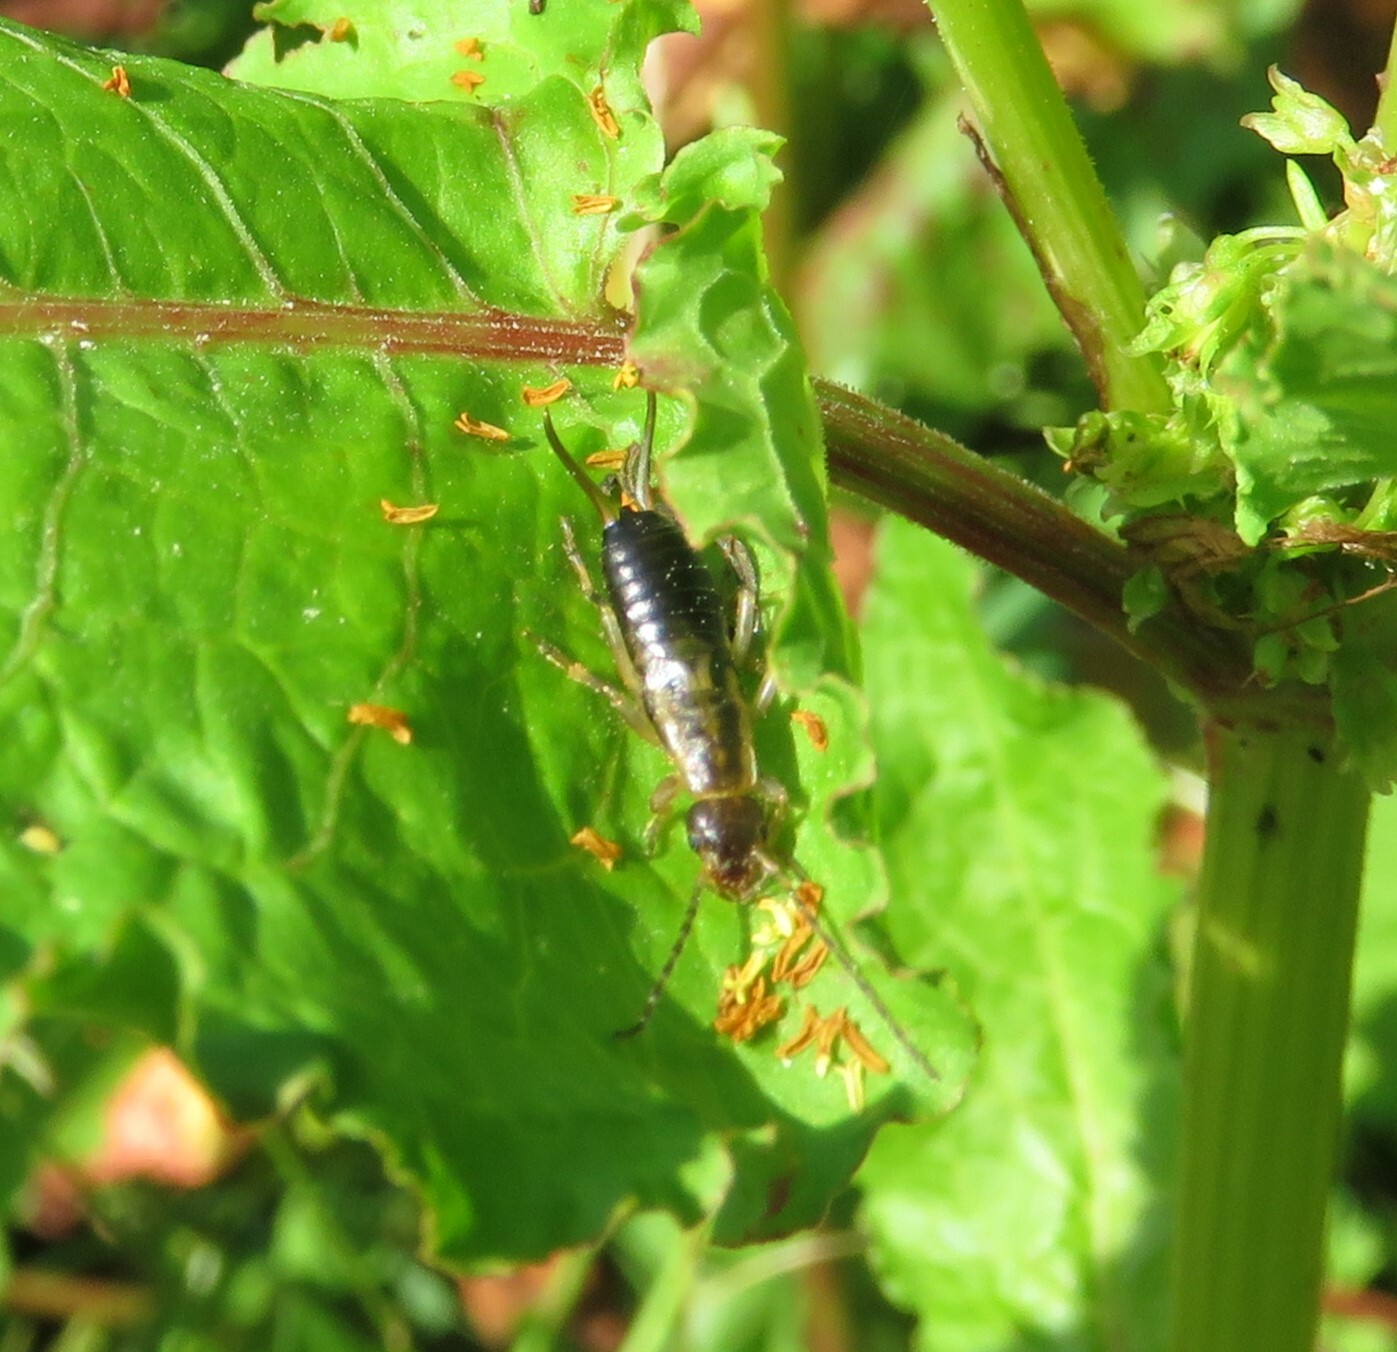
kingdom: Animalia
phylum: Arthropoda
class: Insecta
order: Dermaptera
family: Forficulidae
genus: Forficula
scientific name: Forficula auricularia
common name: European earwig
